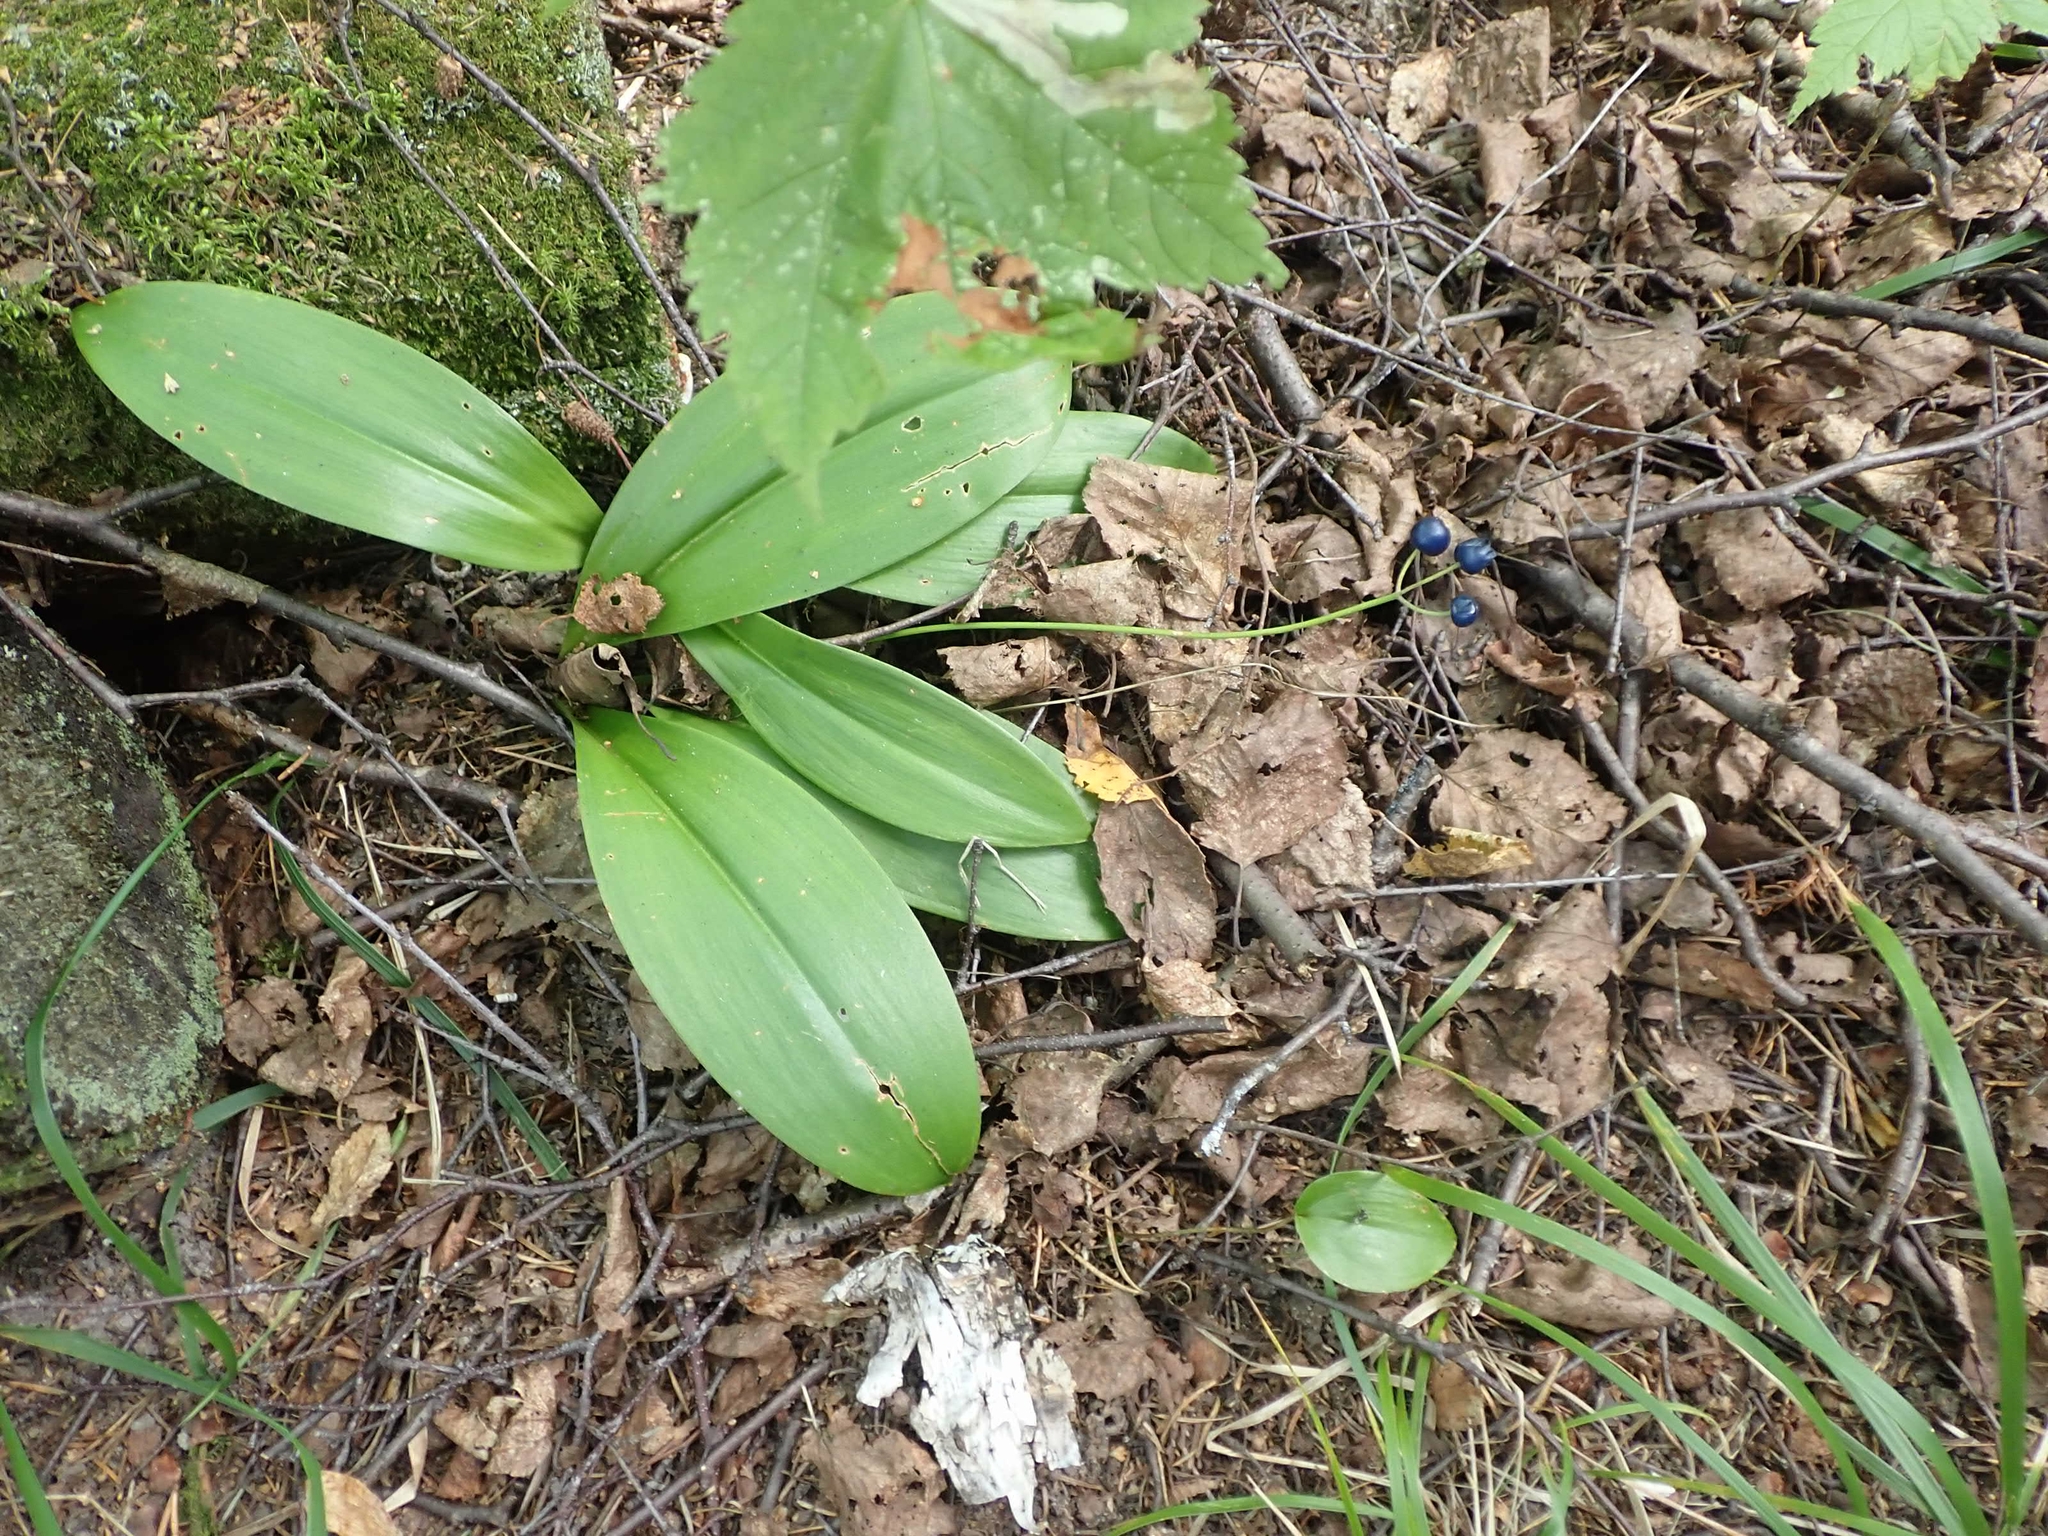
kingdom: Plantae
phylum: Tracheophyta
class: Liliopsida
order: Liliales
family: Liliaceae
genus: Clintonia
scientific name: Clintonia borealis
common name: Yellow clintonia
